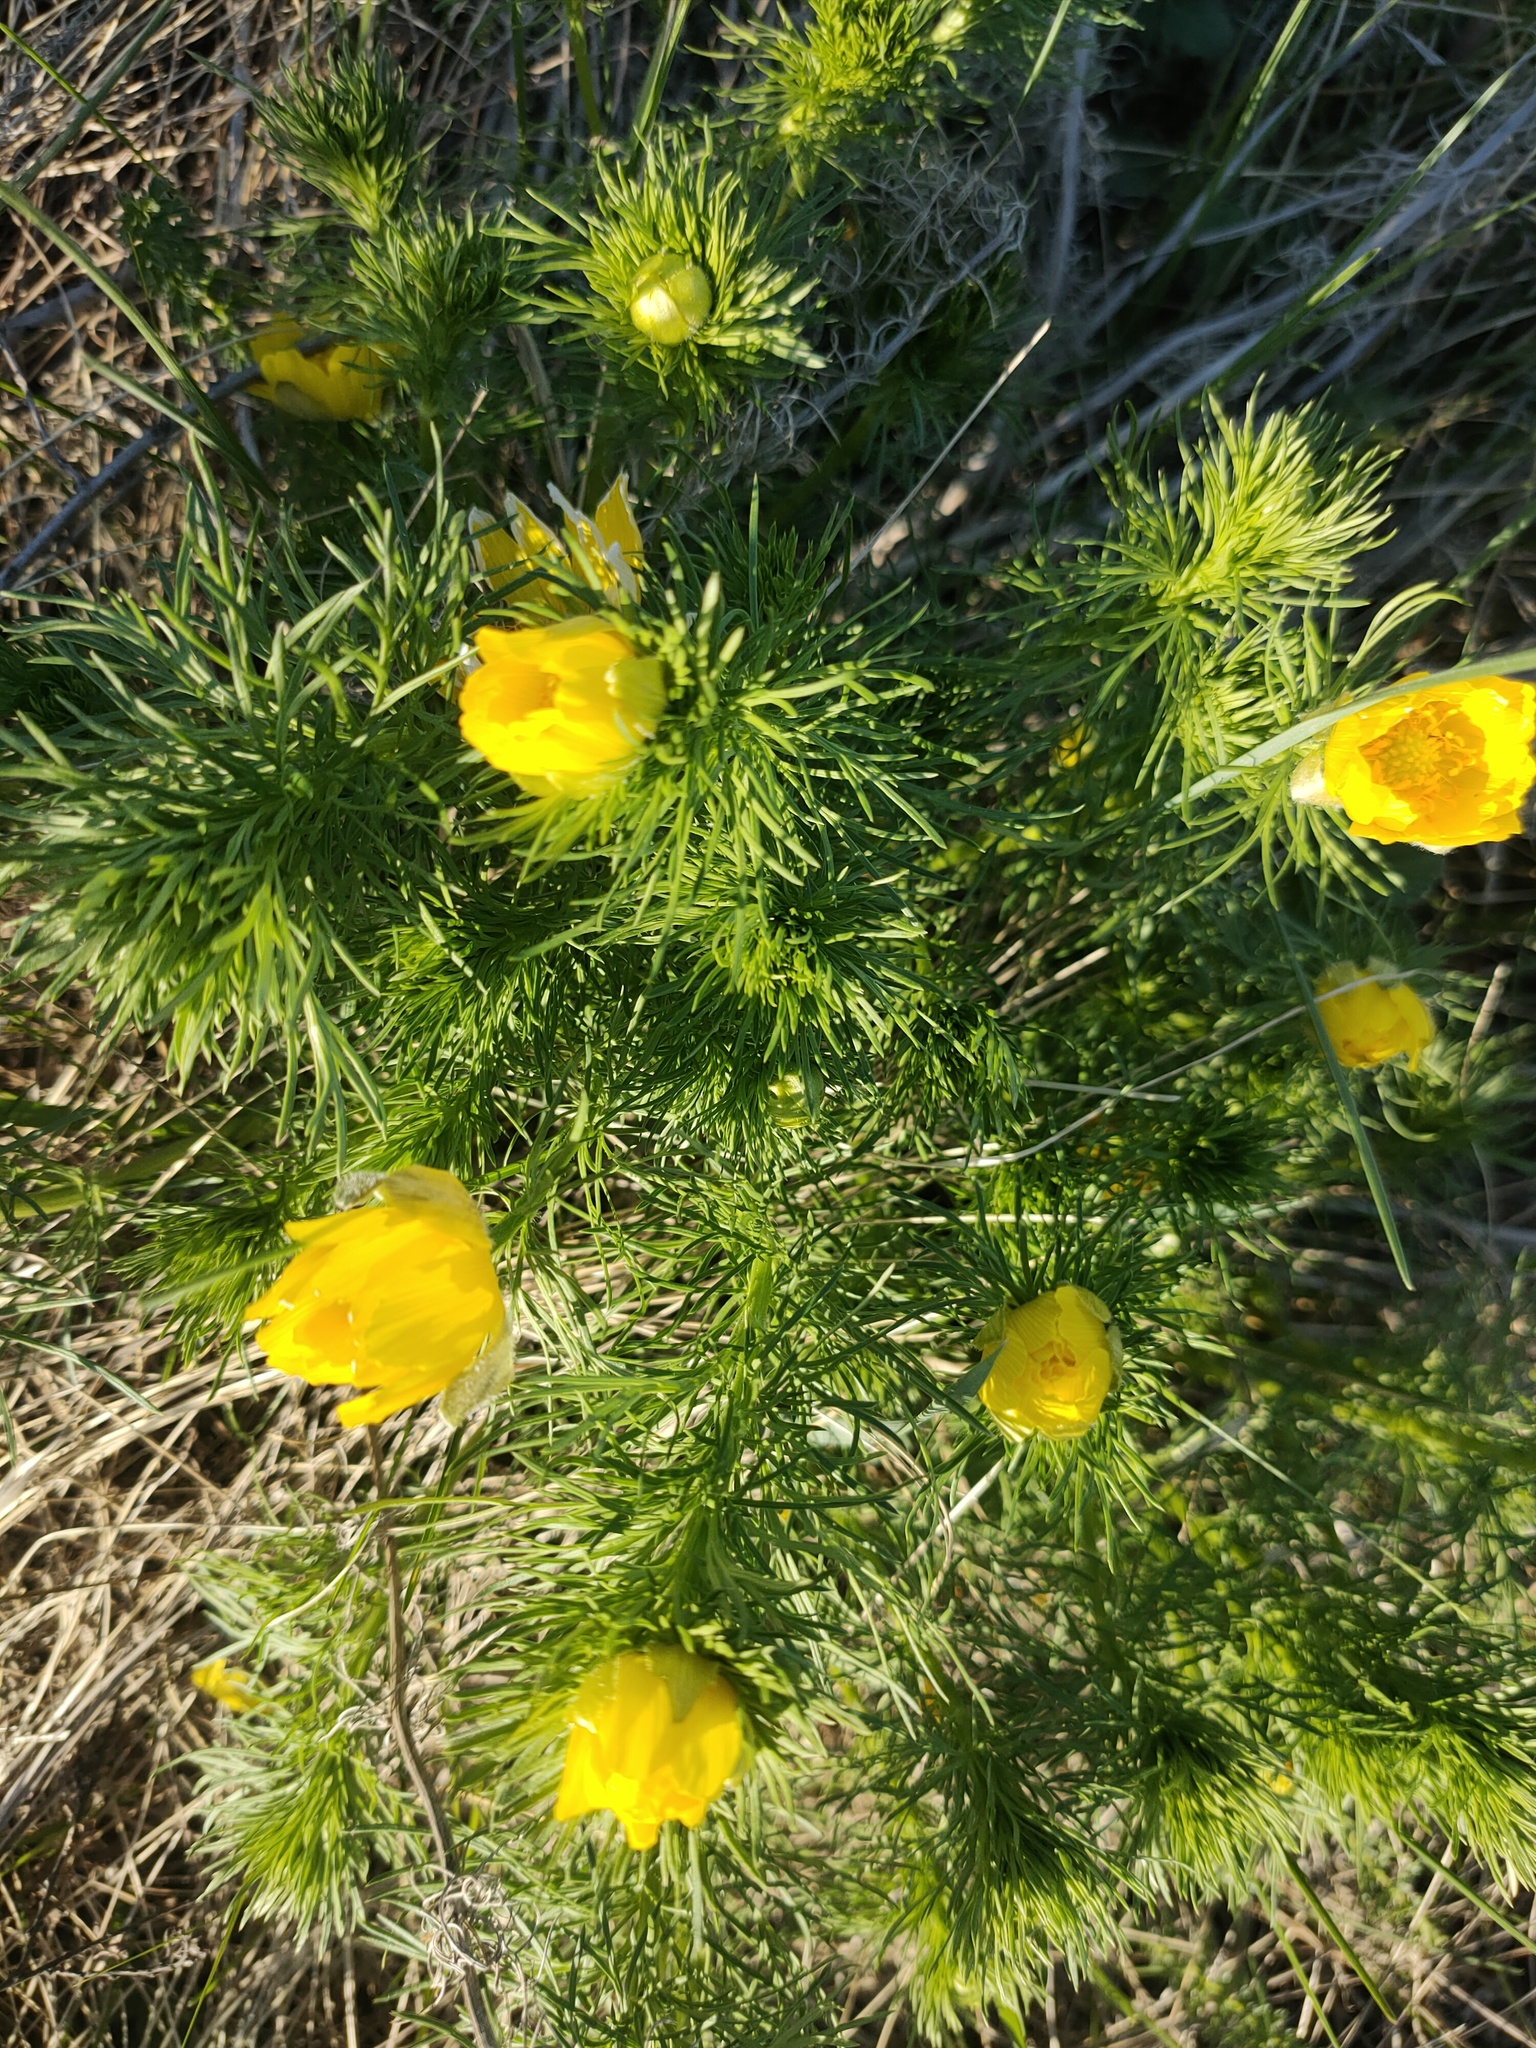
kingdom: Plantae
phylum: Tracheophyta
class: Magnoliopsida
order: Ranunculales
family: Ranunculaceae
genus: Adonis
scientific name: Adonis vernalis
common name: Yellow pheasants-eye
